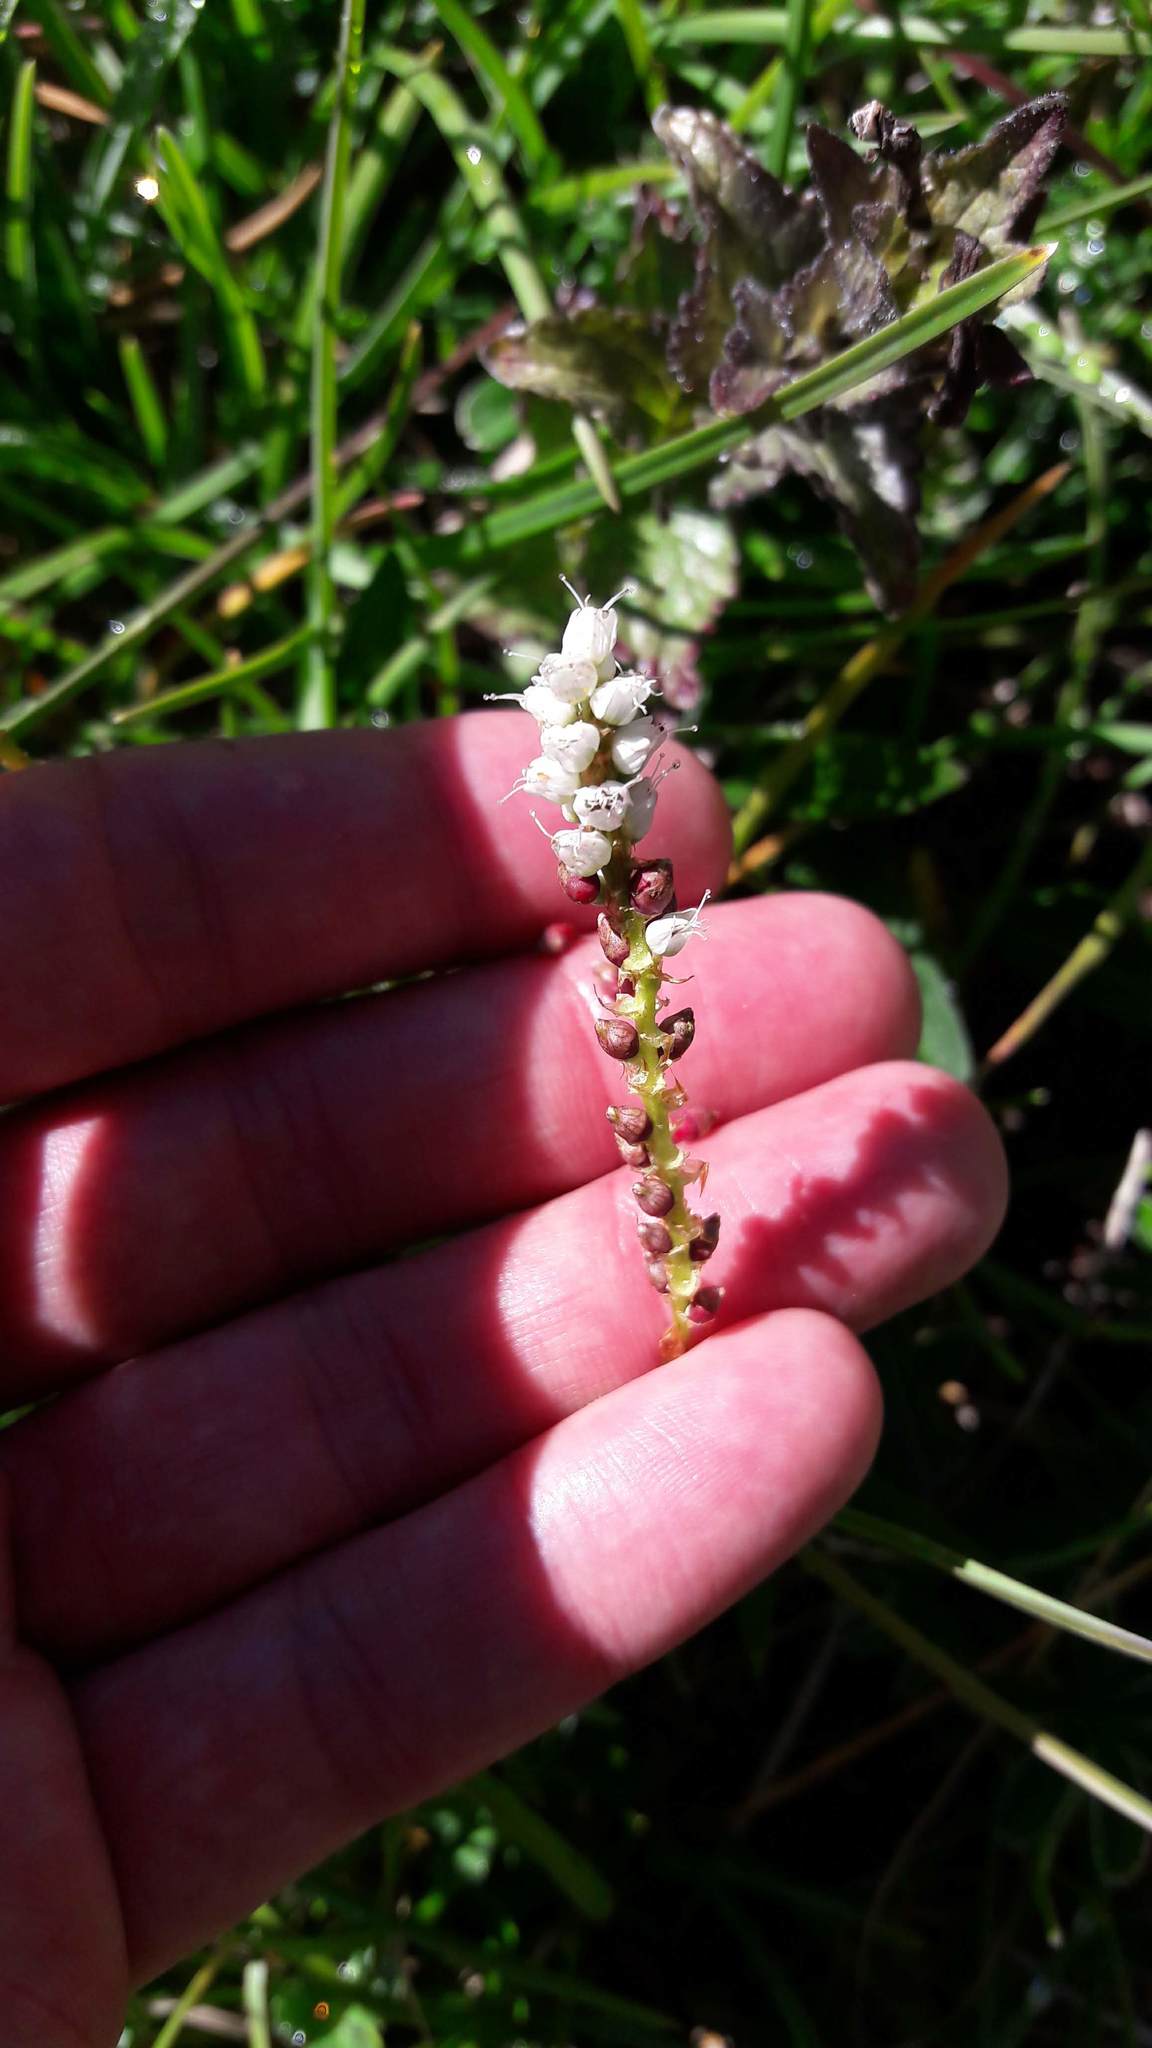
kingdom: Plantae
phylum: Tracheophyta
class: Magnoliopsida
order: Caryophyllales
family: Polygonaceae
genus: Bistorta
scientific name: Bistorta vivipara
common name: Alpine bistort
